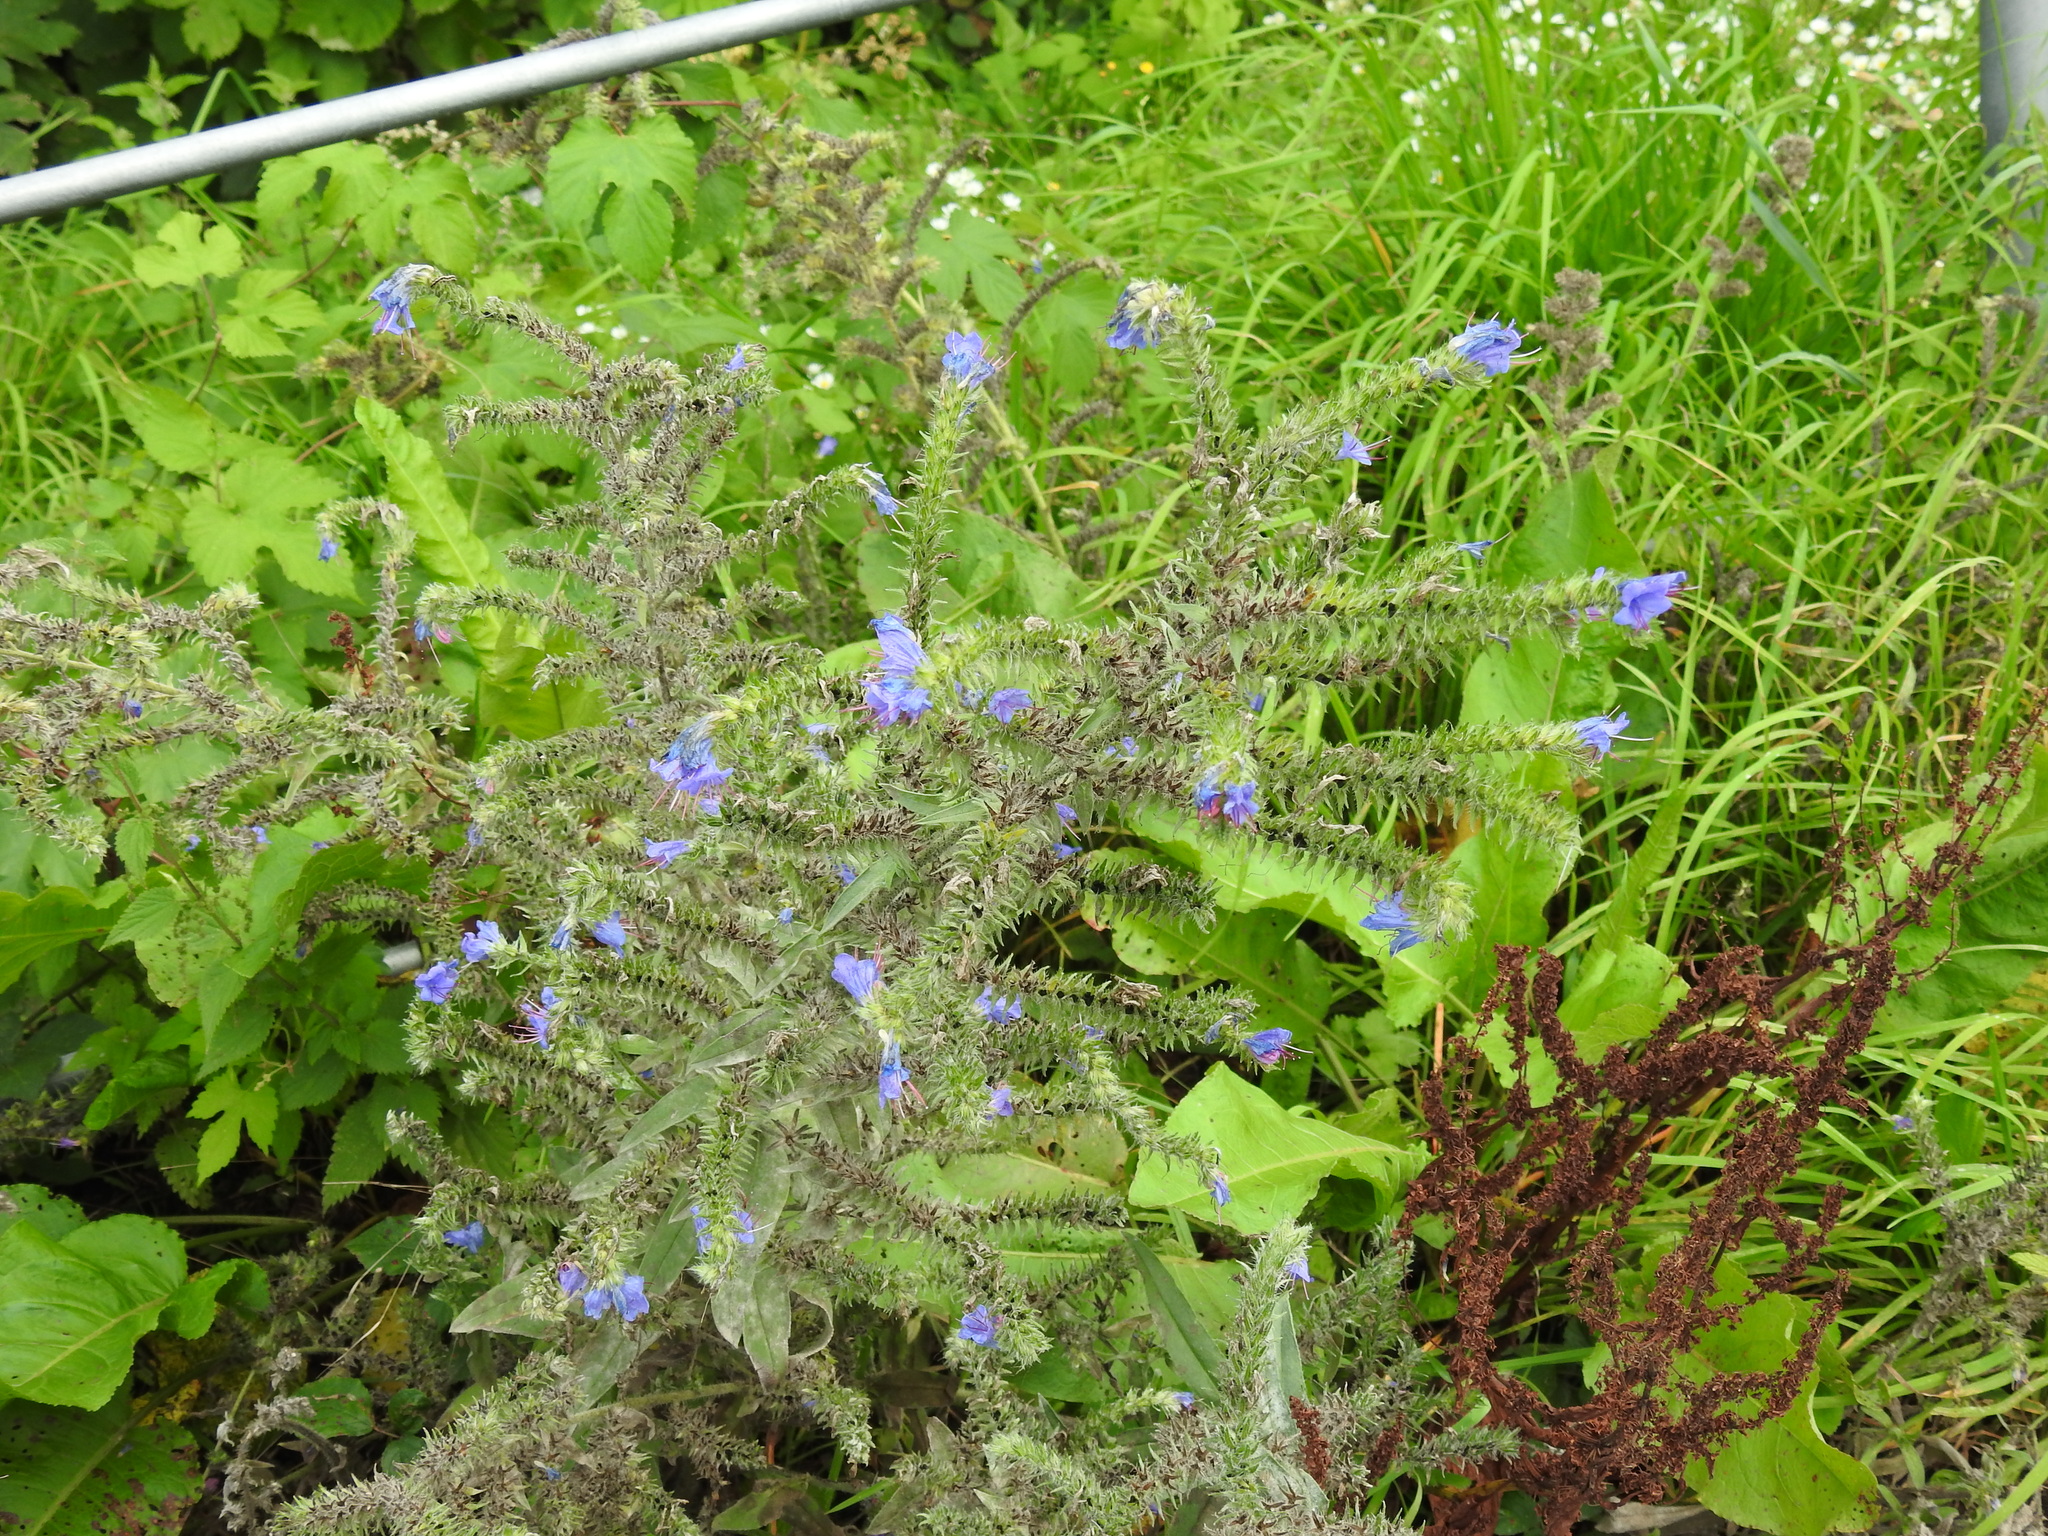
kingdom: Plantae
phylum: Tracheophyta
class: Magnoliopsida
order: Boraginales
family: Boraginaceae
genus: Echium
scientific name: Echium vulgare
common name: Common viper's bugloss
